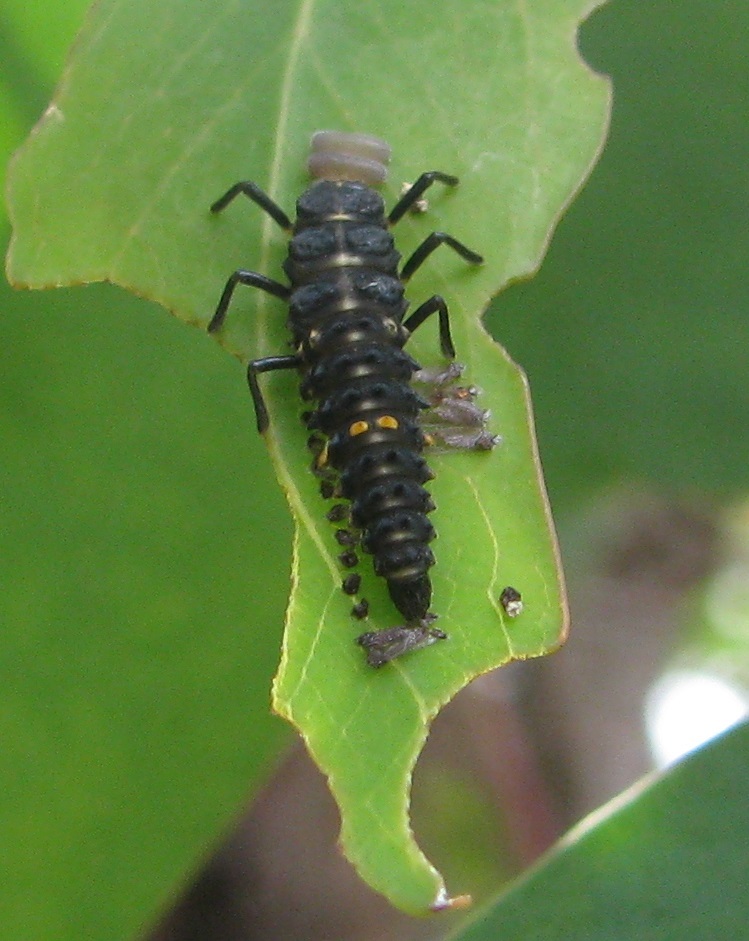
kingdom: Animalia
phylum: Arthropoda
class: Insecta
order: Coleoptera
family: Coccinellidae
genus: Cleobora
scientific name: Cleobora
